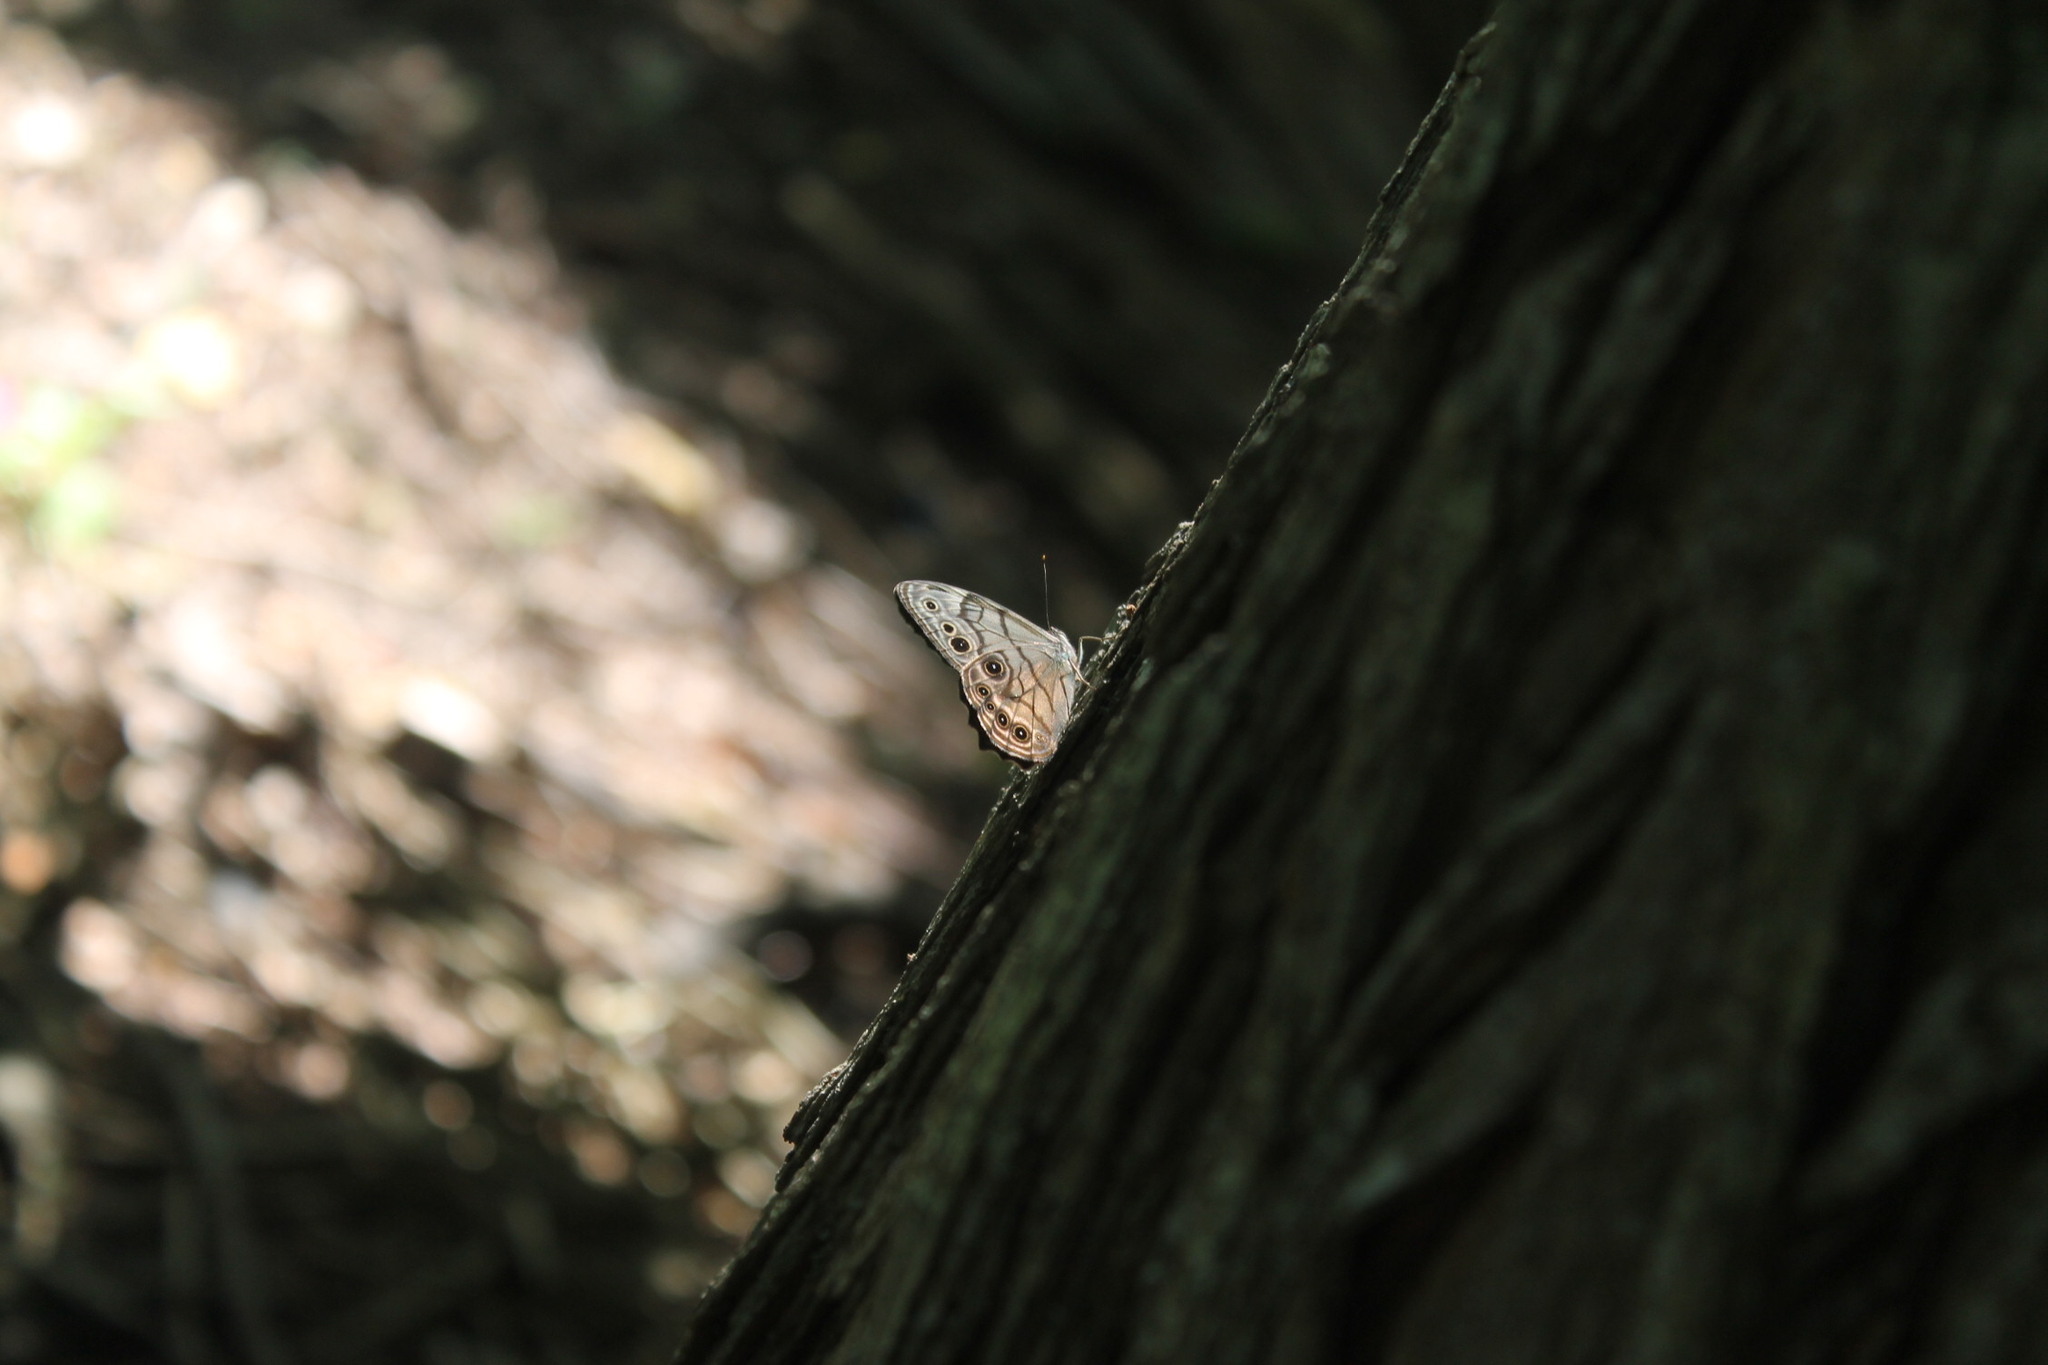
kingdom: Animalia
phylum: Arthropoda
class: Insecta
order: Lepidoptera
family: Nymphalidae
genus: Lethe
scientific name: Lethe anthedon
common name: Northern pearly-eye
